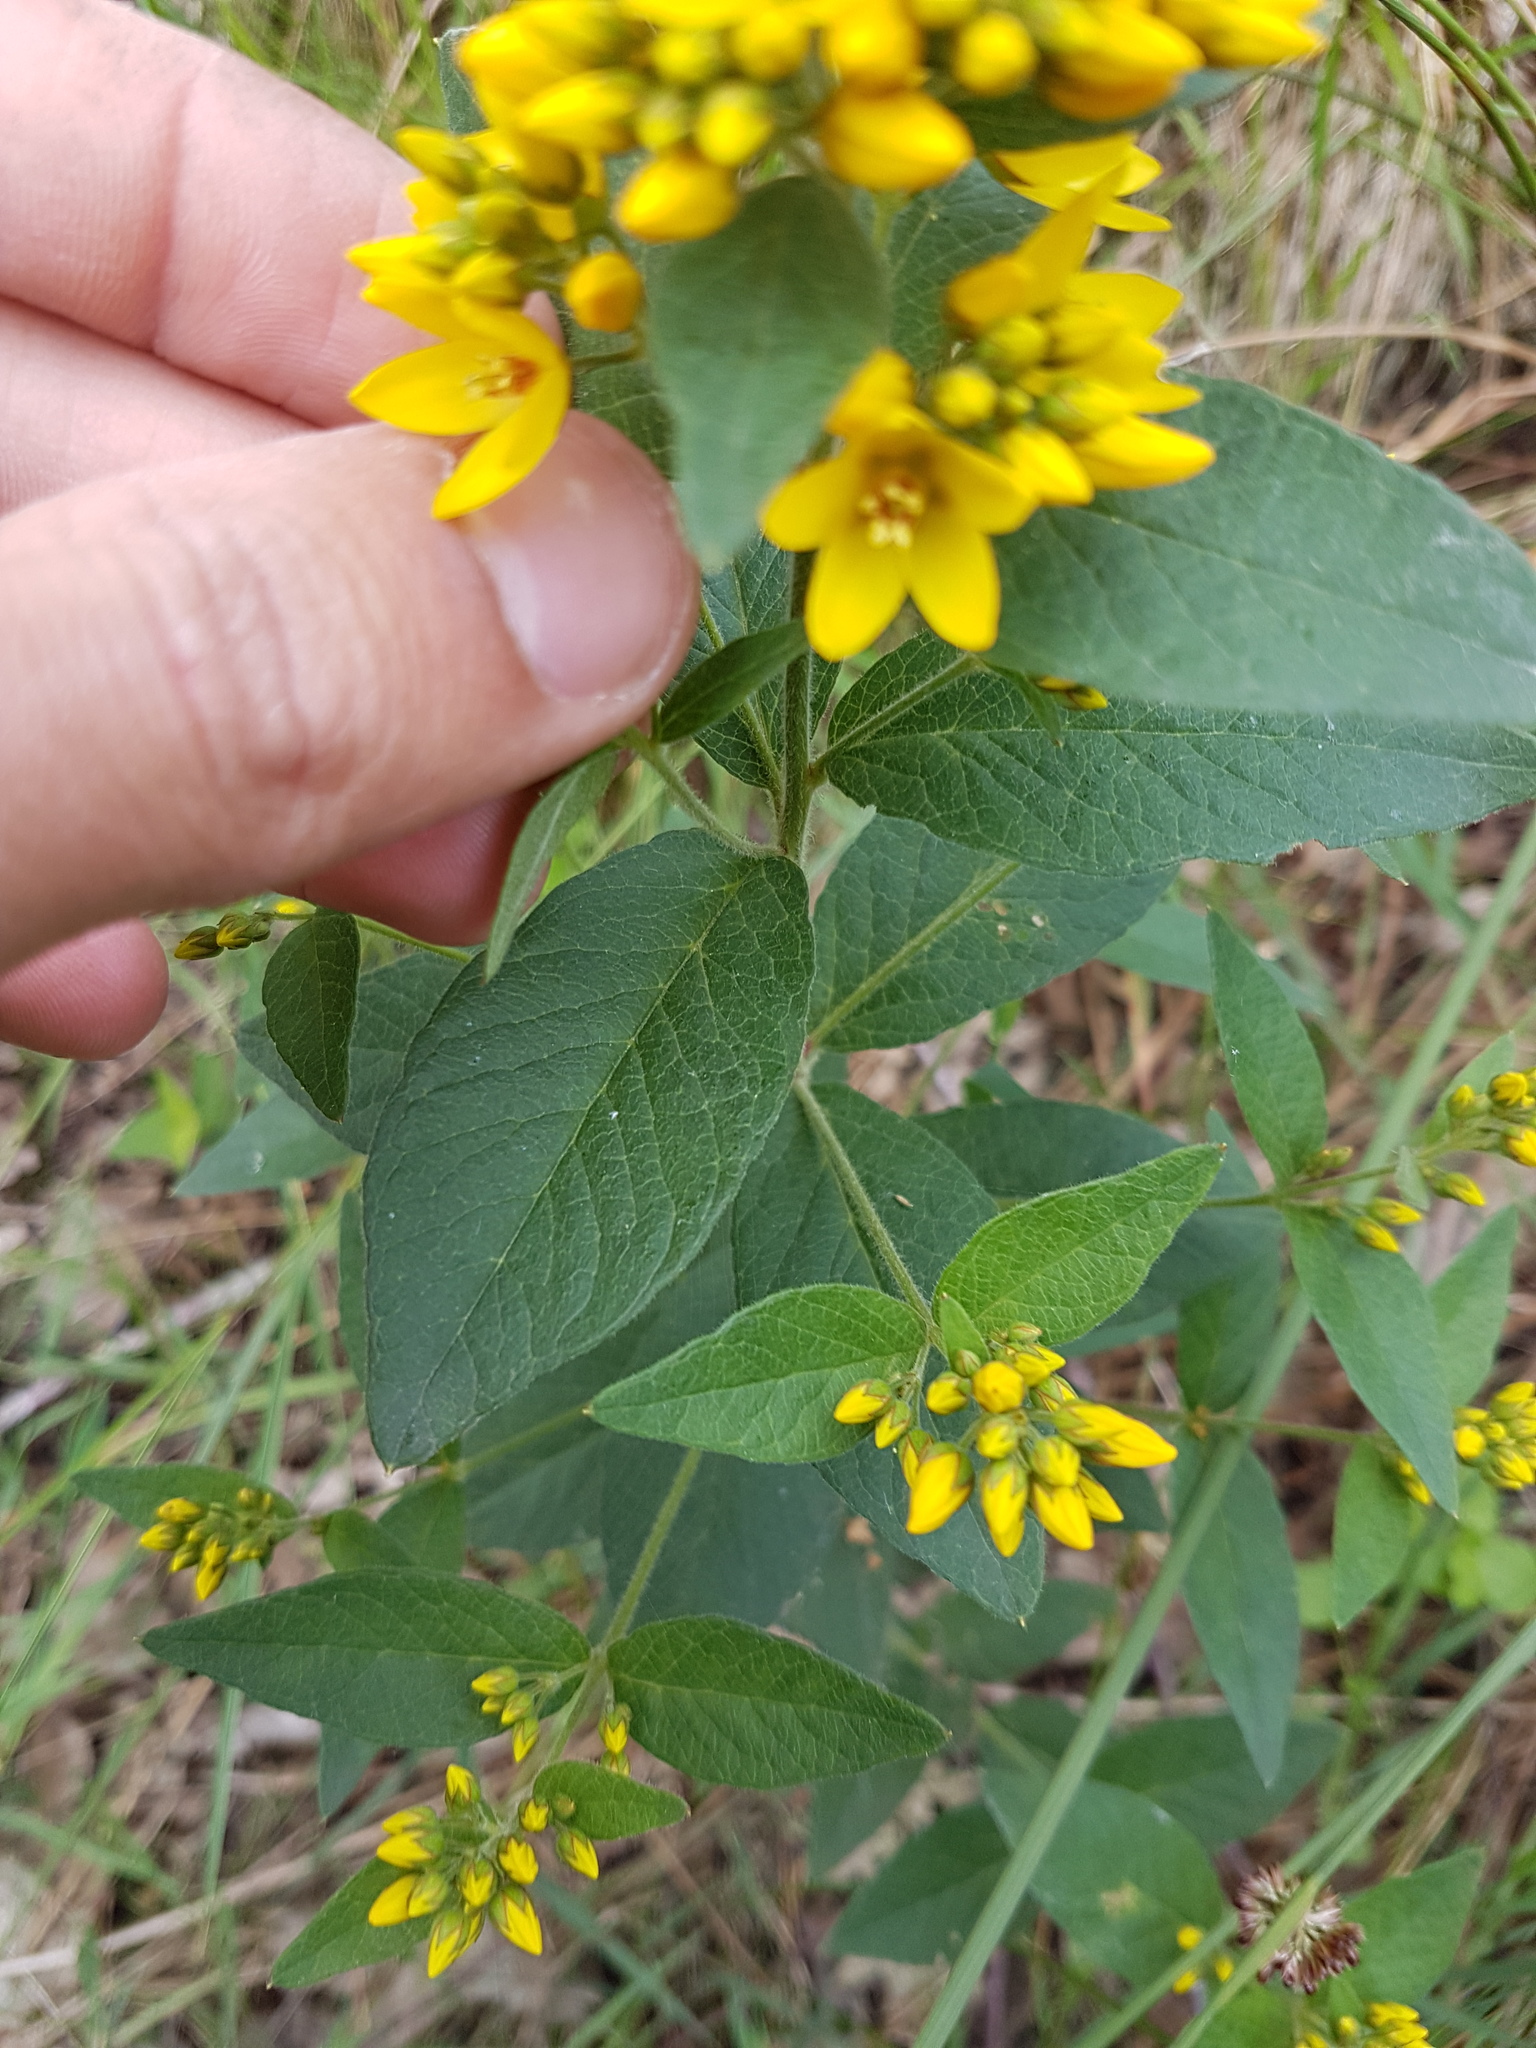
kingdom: Plantae
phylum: Tracheophyta
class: Magnoliopsida
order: Ericales
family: Primulaceae
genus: Lysimachia
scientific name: Lysimachia vulgaris
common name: Yellow loosestrife
